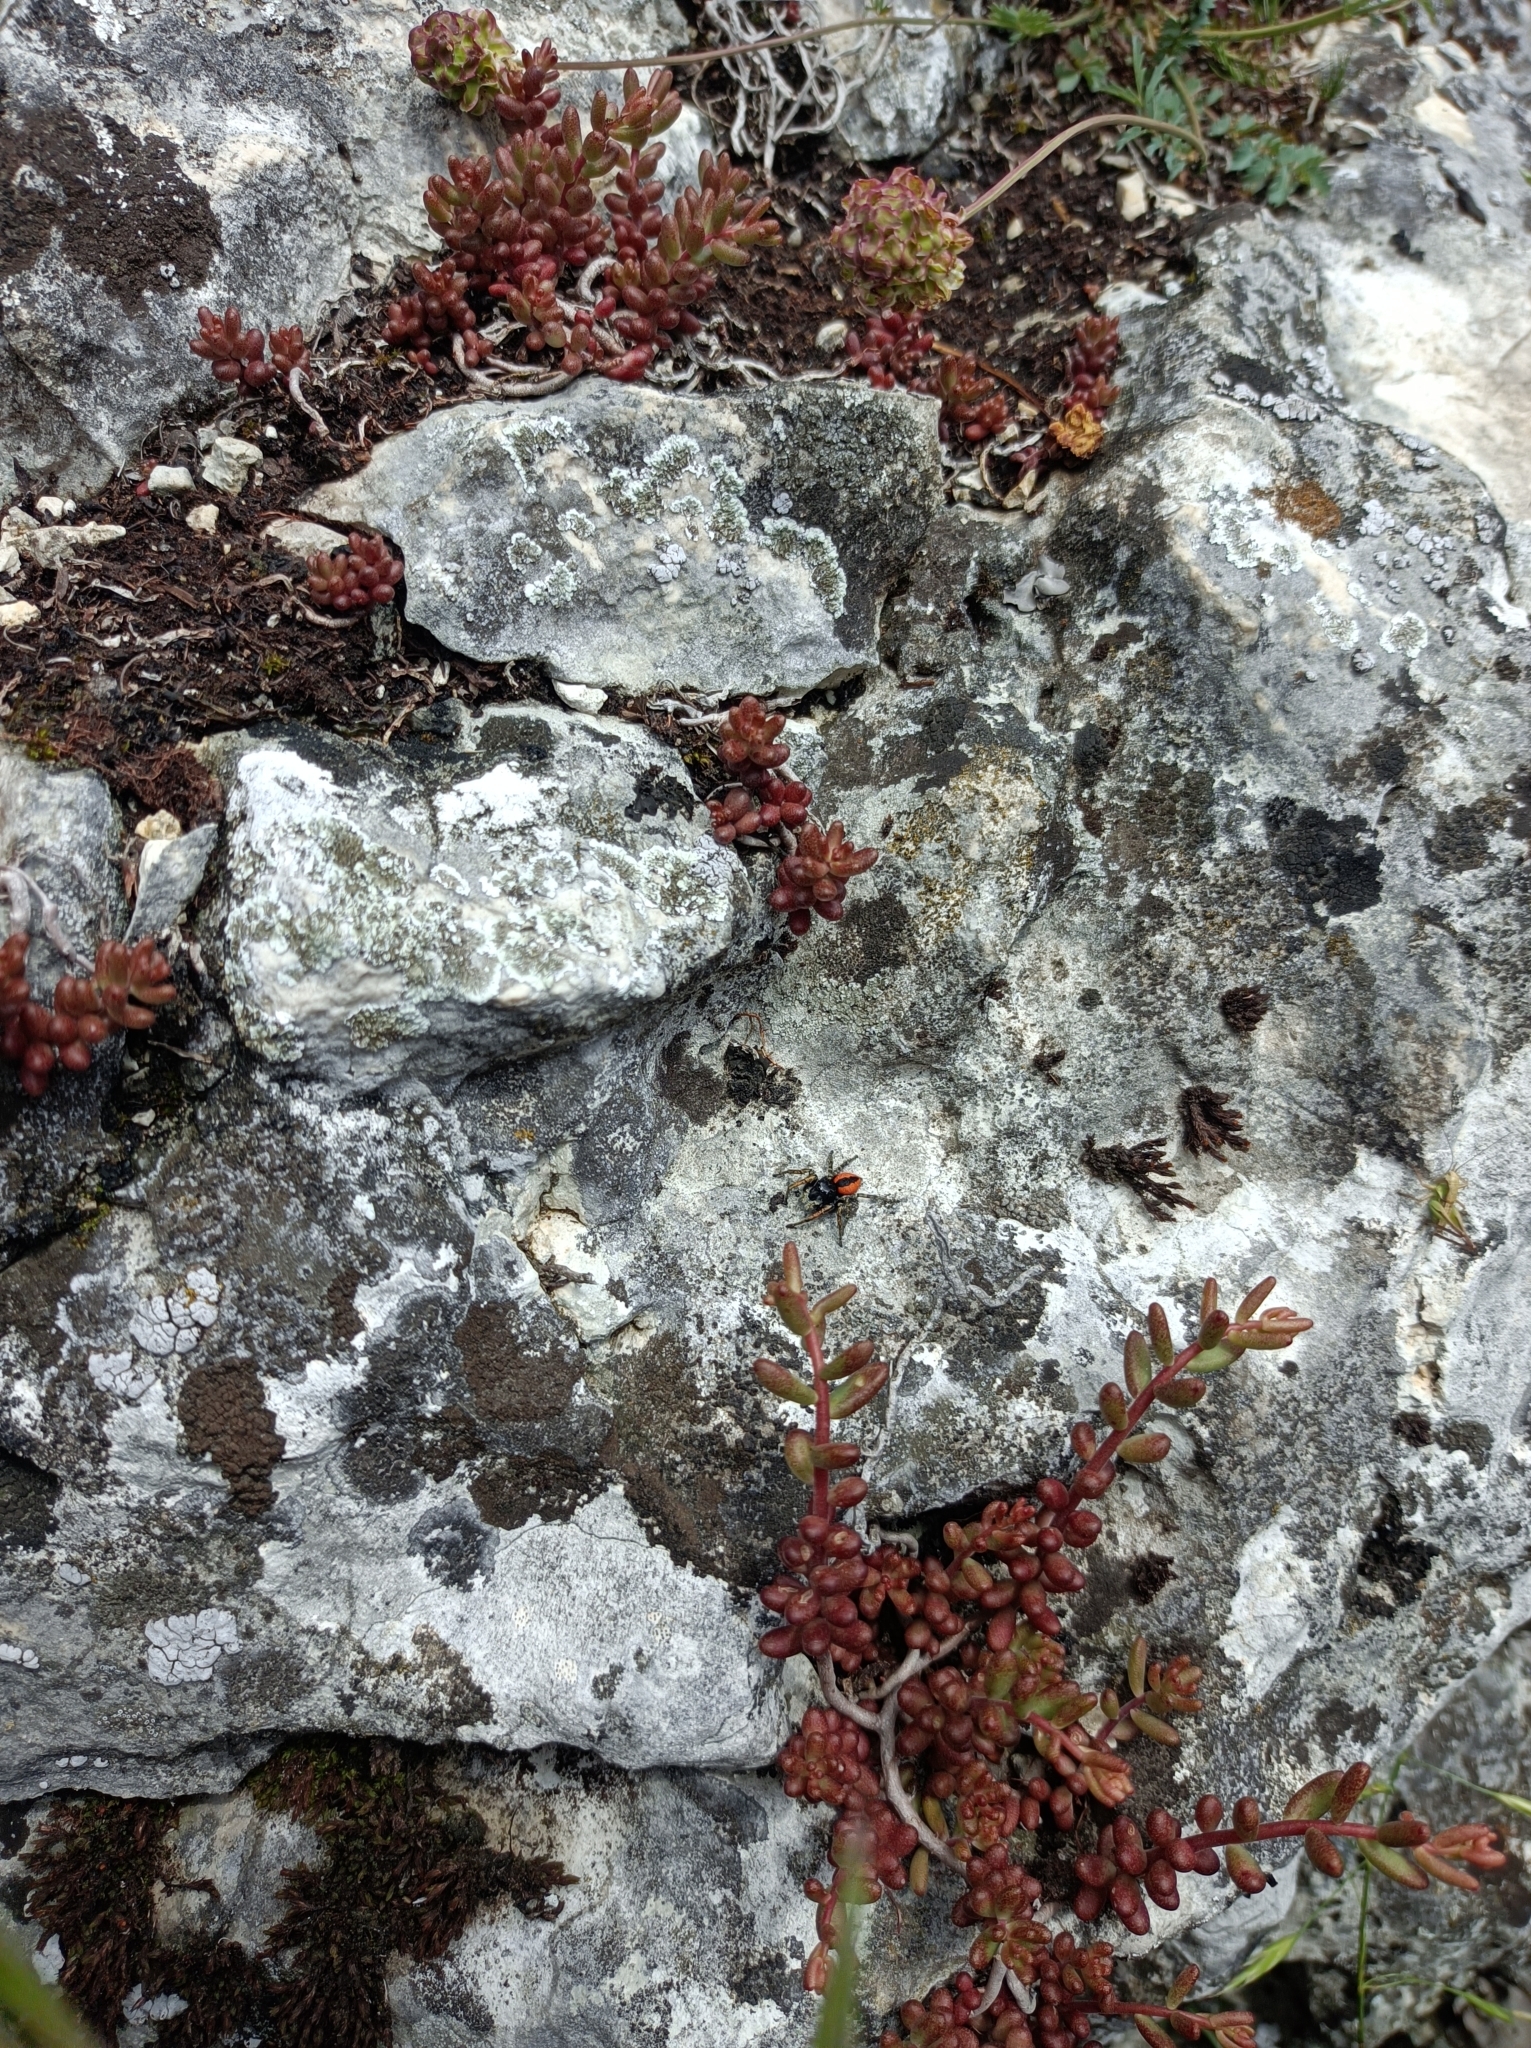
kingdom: Animalia
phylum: Arthropoda
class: Arachnida
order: Araneae
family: Salticidae
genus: Philaeus
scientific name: Philaeus chrysops
